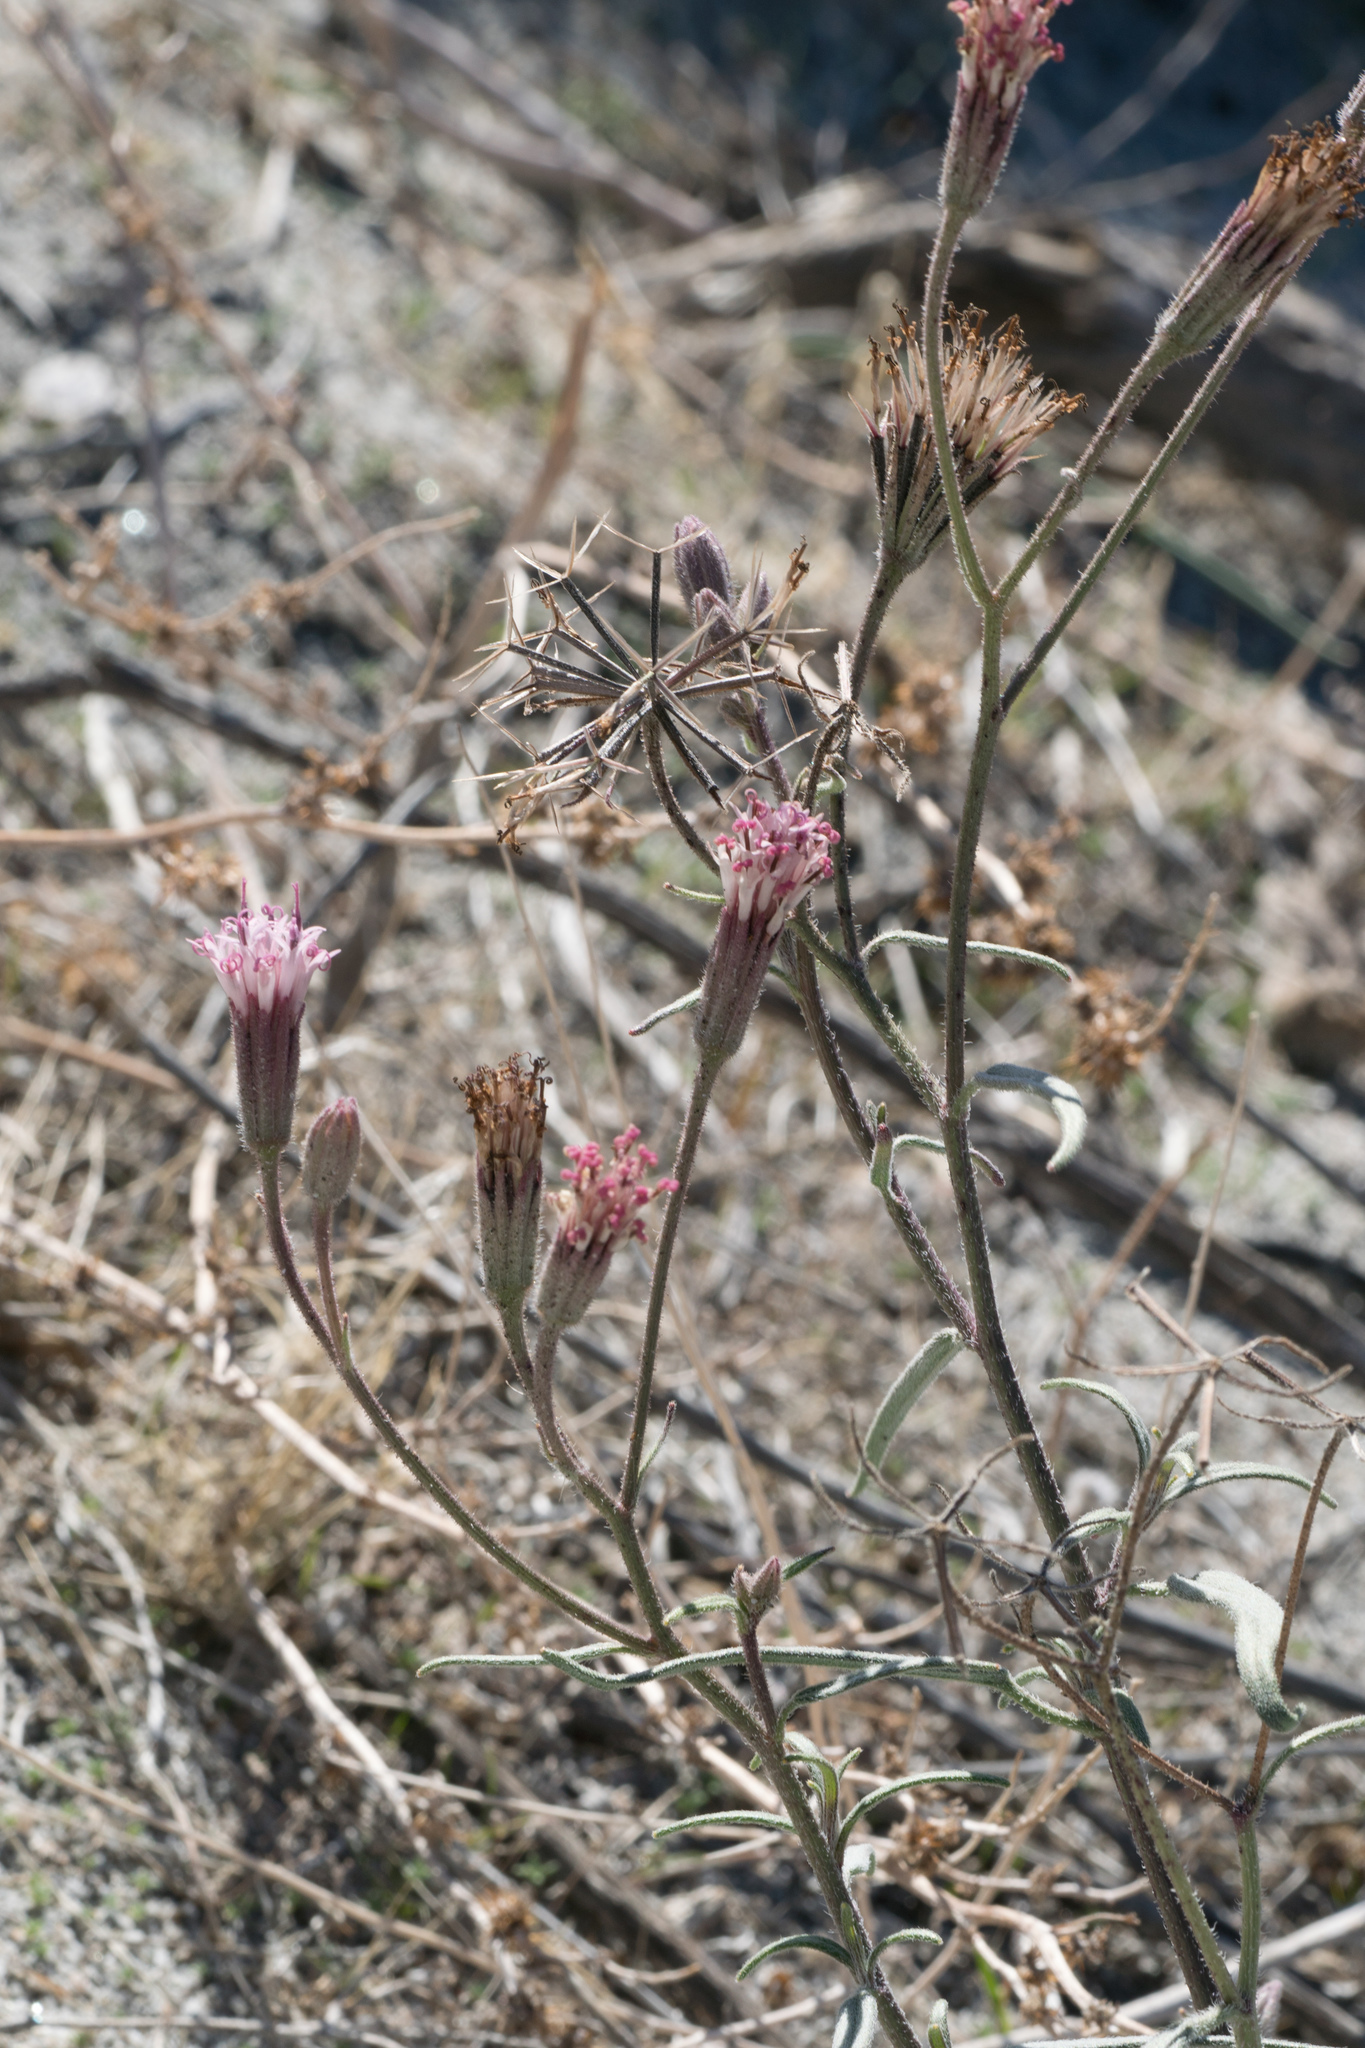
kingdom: Plantae
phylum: Tracheophyta
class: Magnoliopsida
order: Asterales
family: Asteraceae
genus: Palafoxia
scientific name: Palafoxia arida
